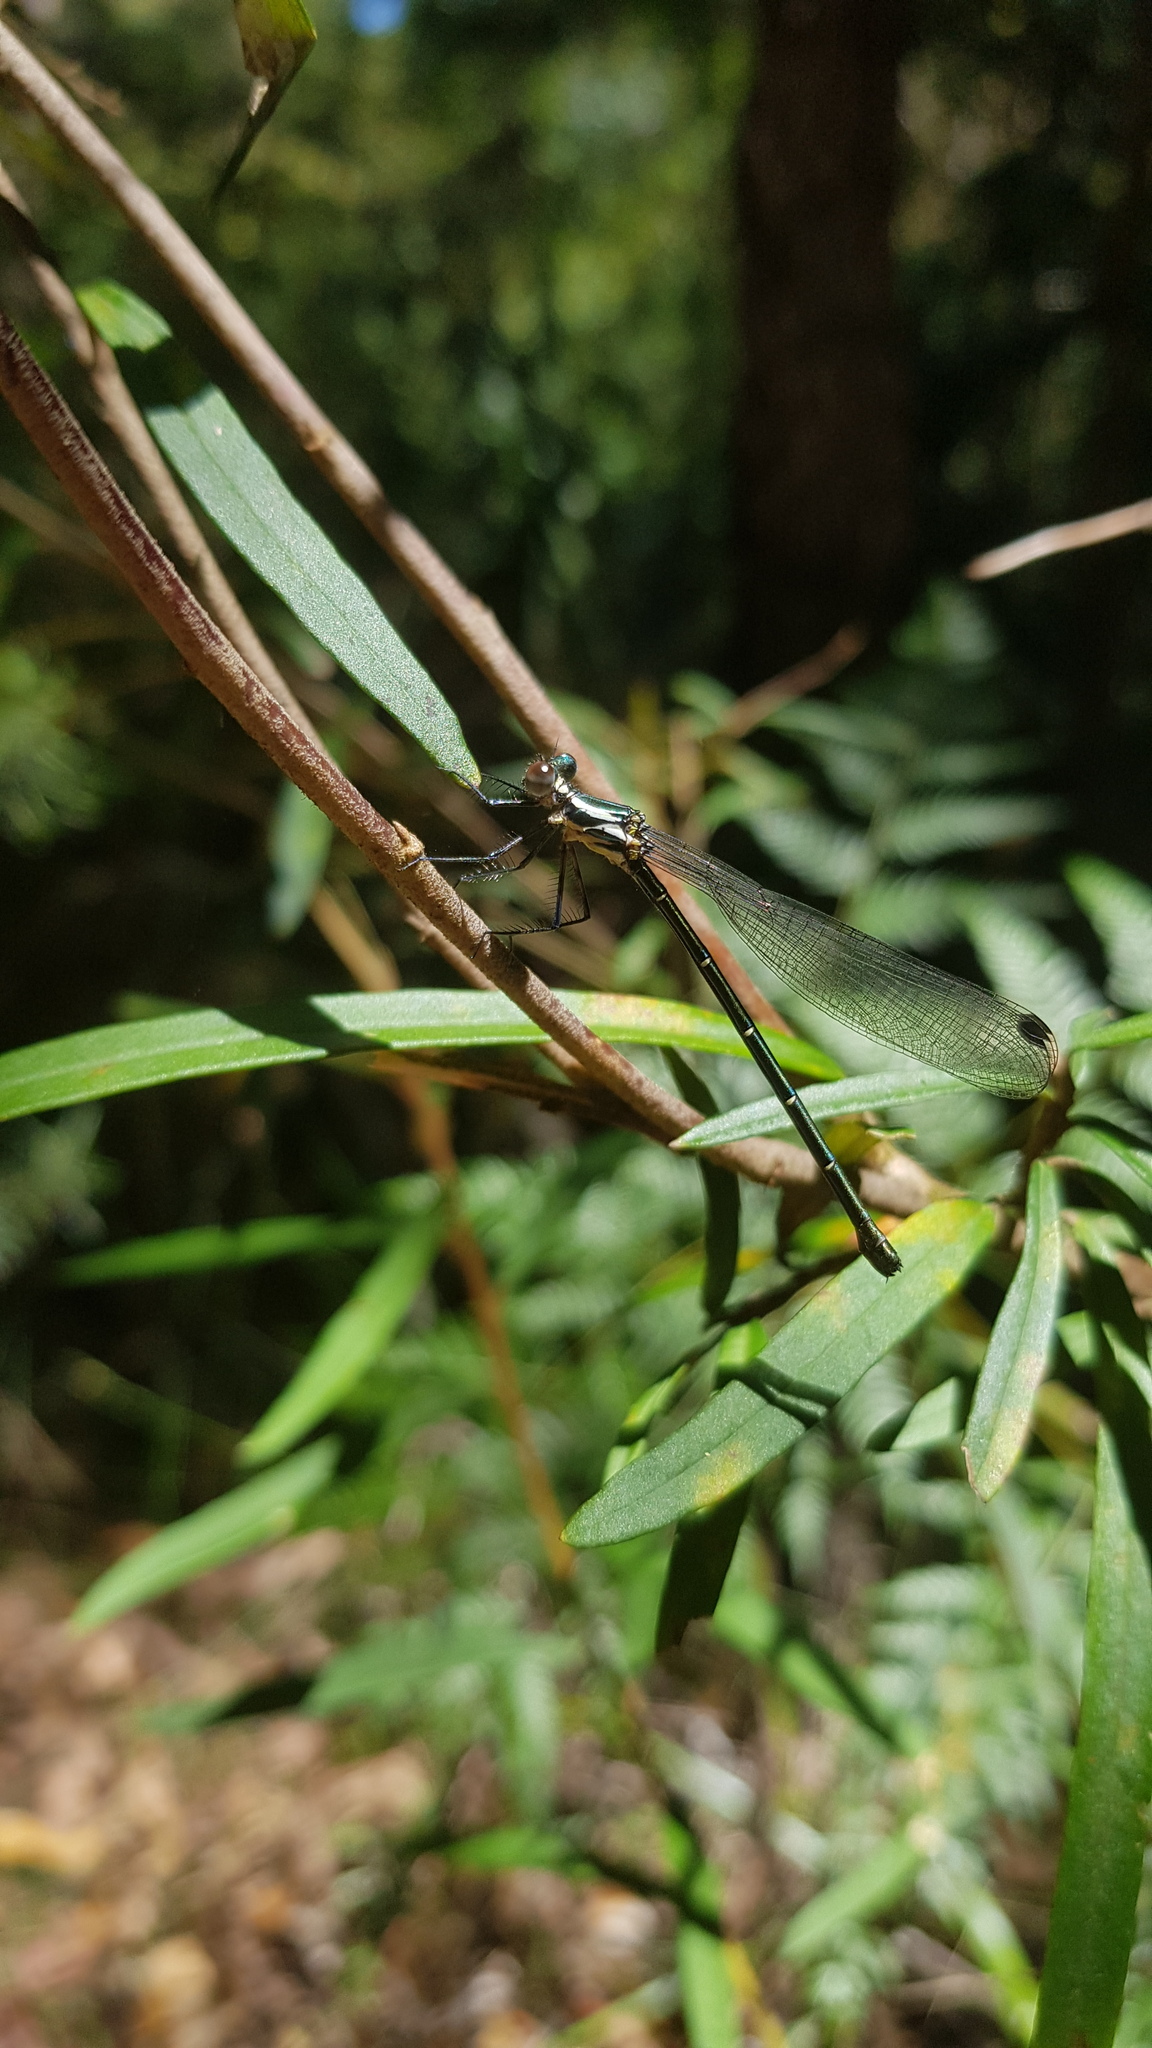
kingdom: Animalia
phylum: Arthropoda
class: Insecta
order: Odonata
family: Argiolestidae
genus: Austroargiolestes
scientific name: Austroargiolestes icteromelas
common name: Common flatwing
